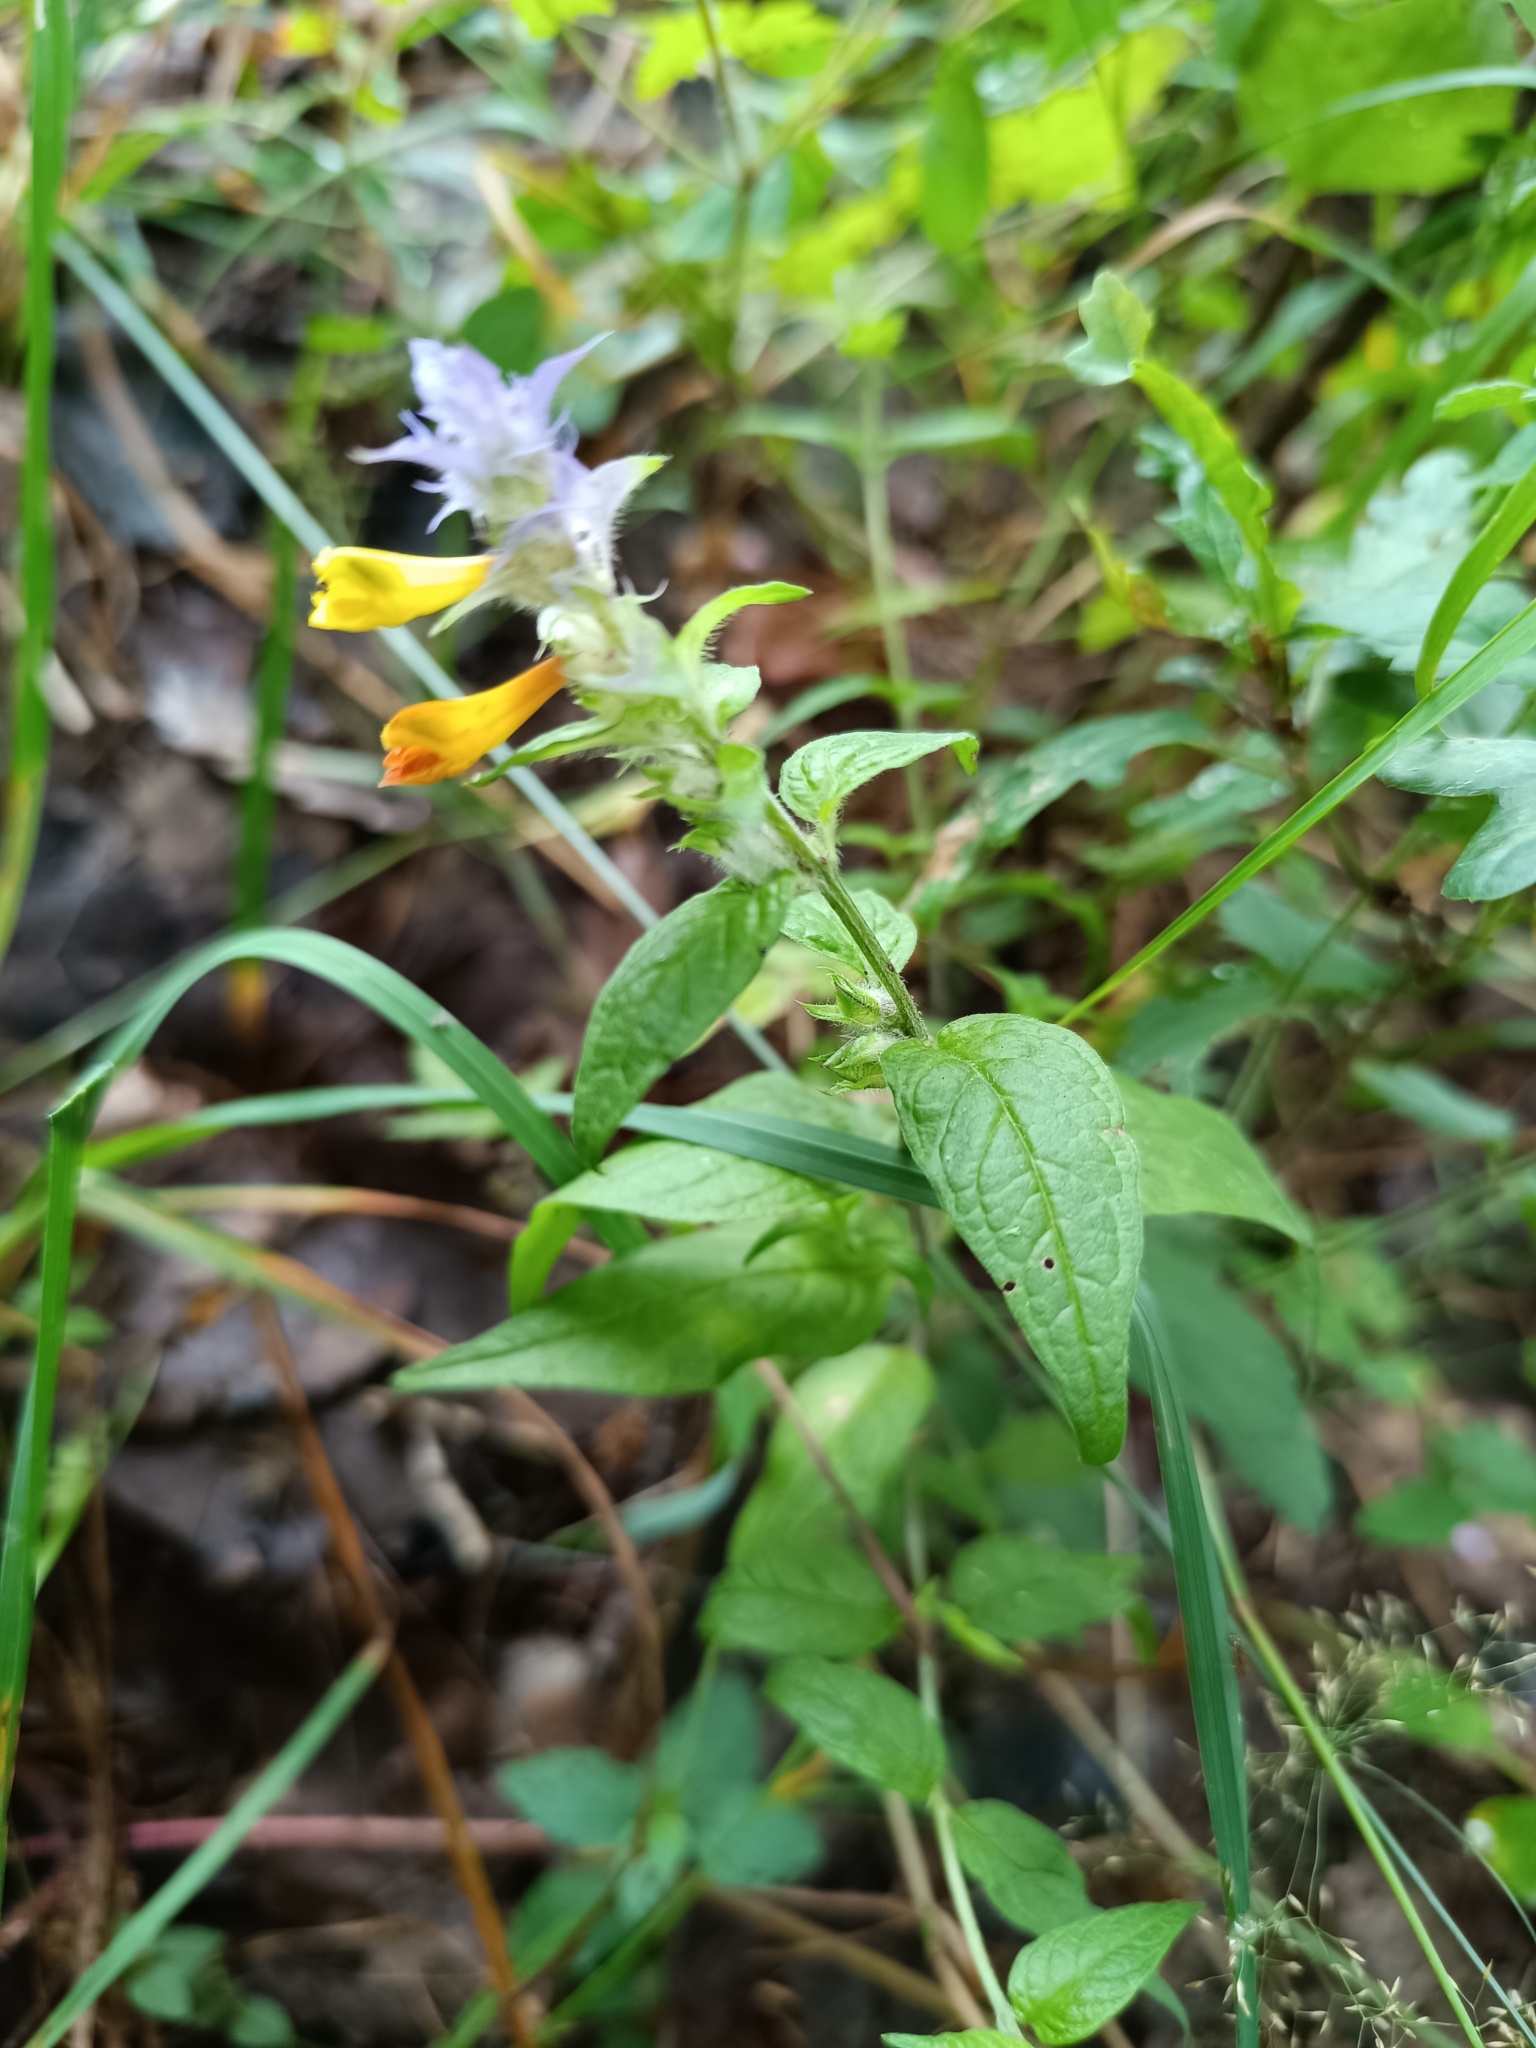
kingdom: Plantae
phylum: Tracheophyta
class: Magnoliopsida
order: Lamiales
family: Orobanchaceae
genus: Melampyrum
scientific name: Melampyrum nemorosum
